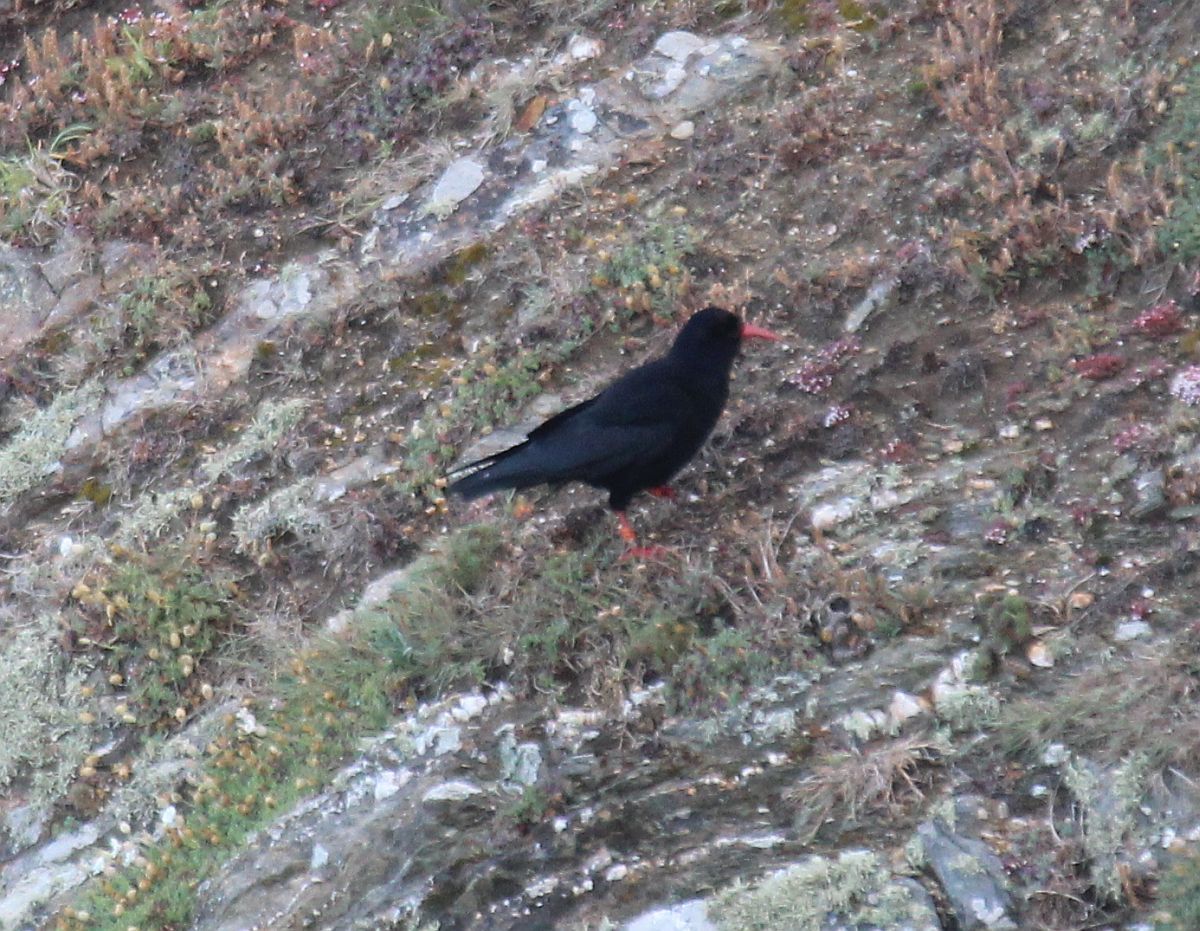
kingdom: Animalia
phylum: Chordata
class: Aves
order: Passeriformes
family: Corvidae
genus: Pyrrhocorax
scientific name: Pyrrhocorax pyrrhocorax
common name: Red-billed chough
